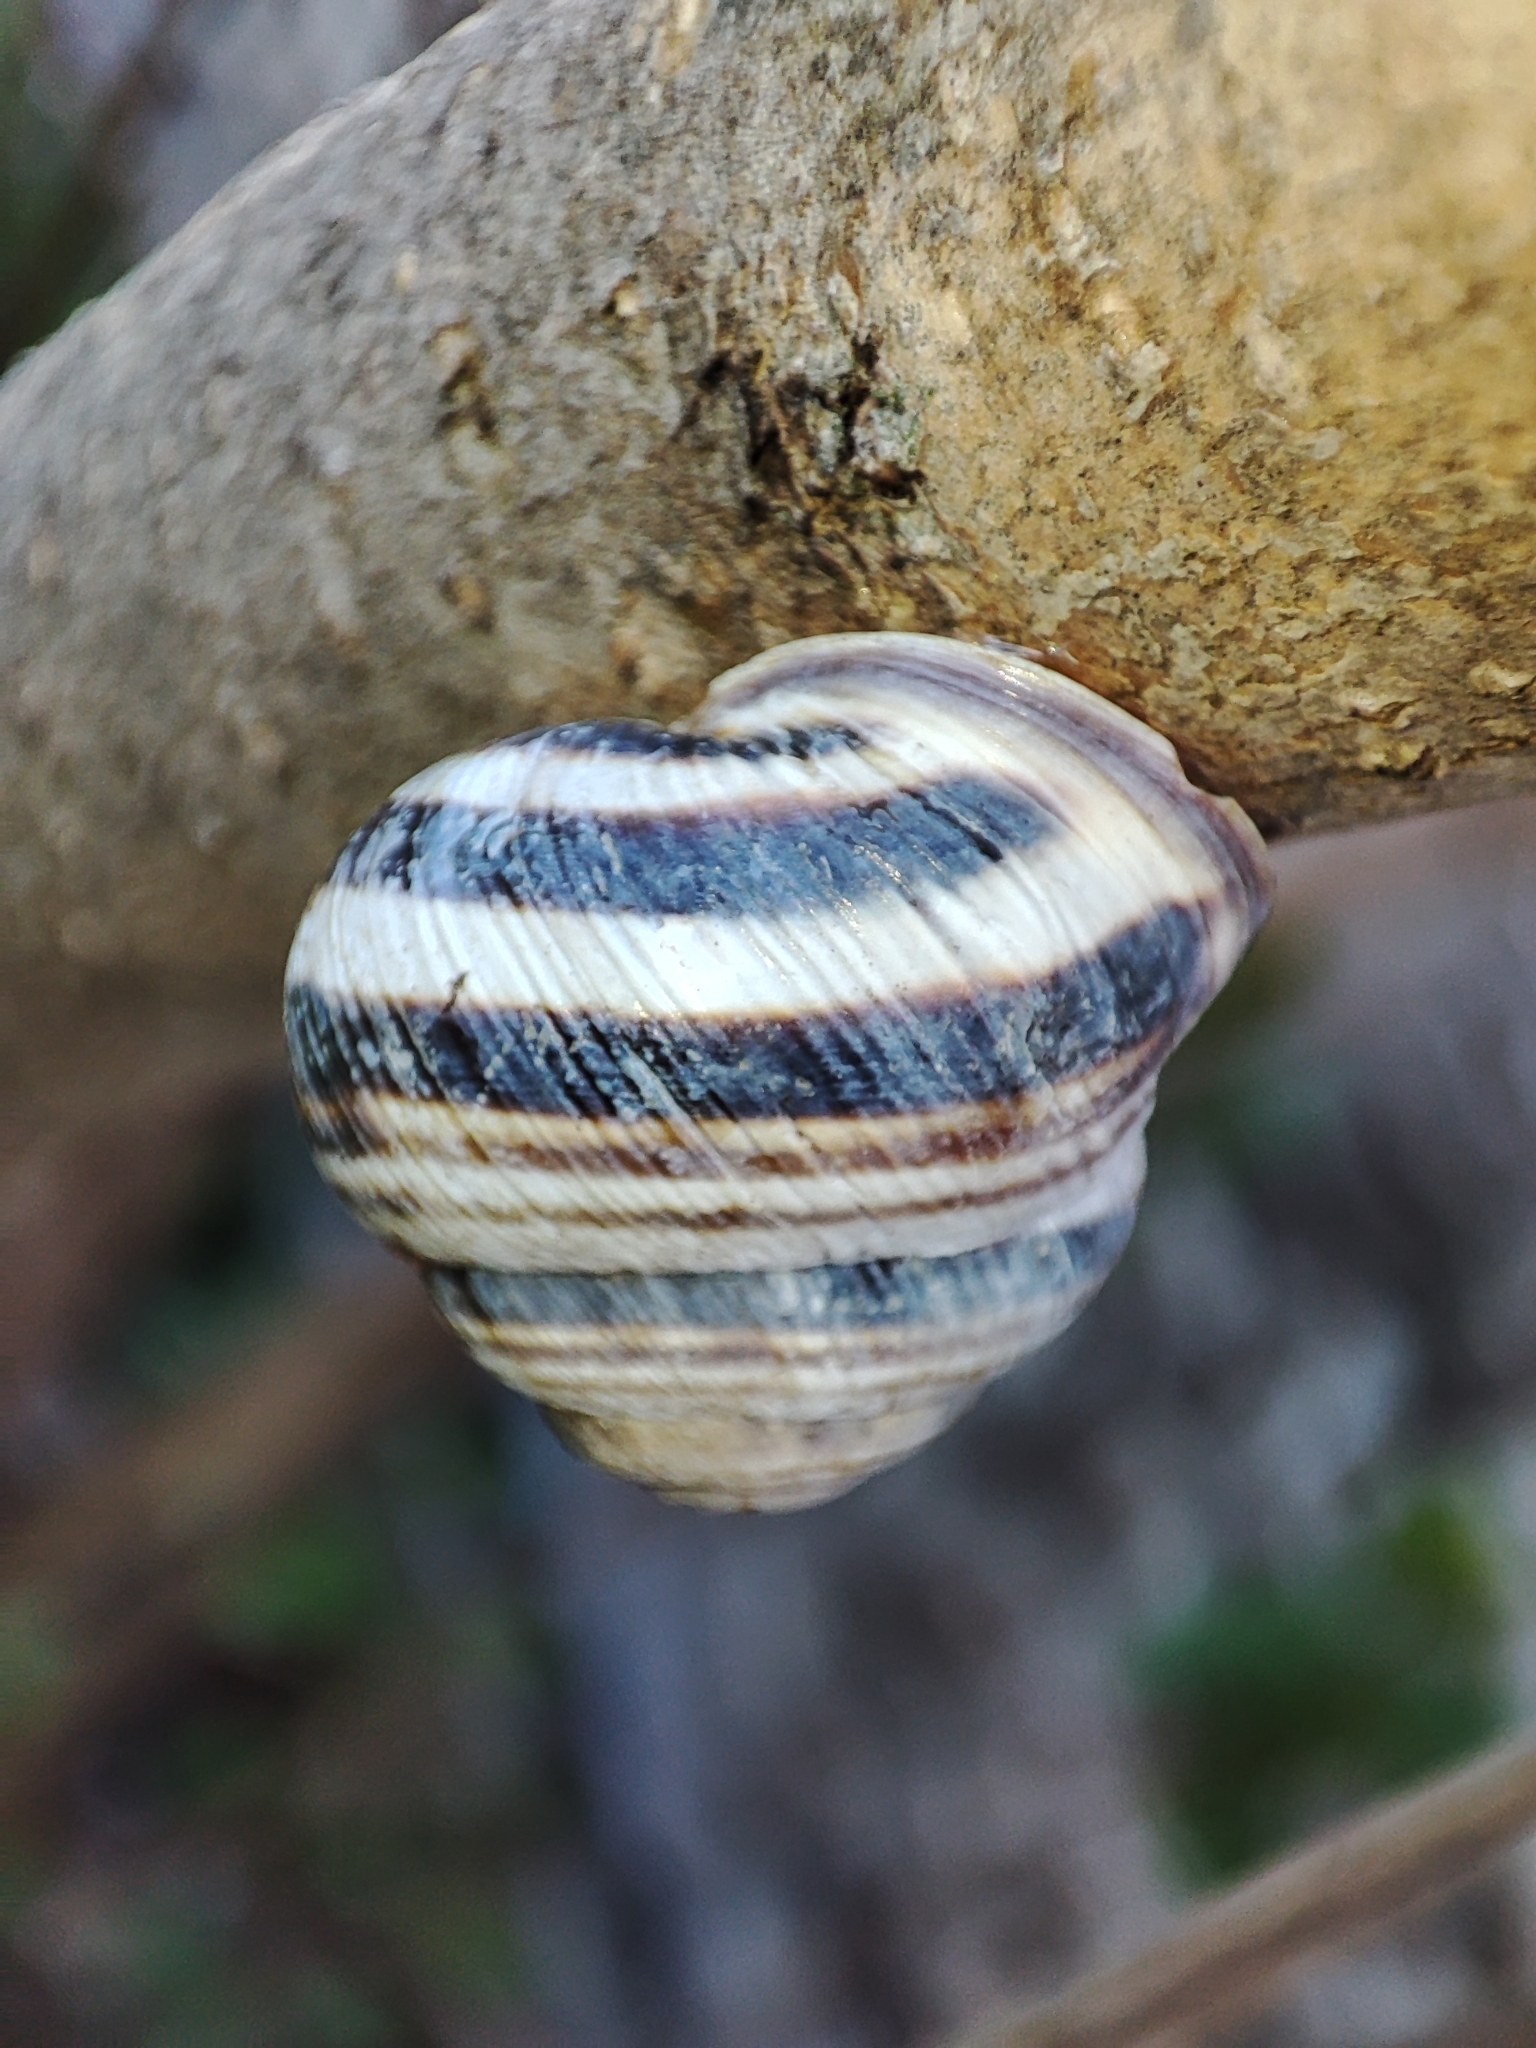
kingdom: Animalia
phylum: Mollusca
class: Gastropoda
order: Stylommatophora
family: Helicidae
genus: Caucasotachea
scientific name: Caucasotachea vindobonensis
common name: European helicid land snail
